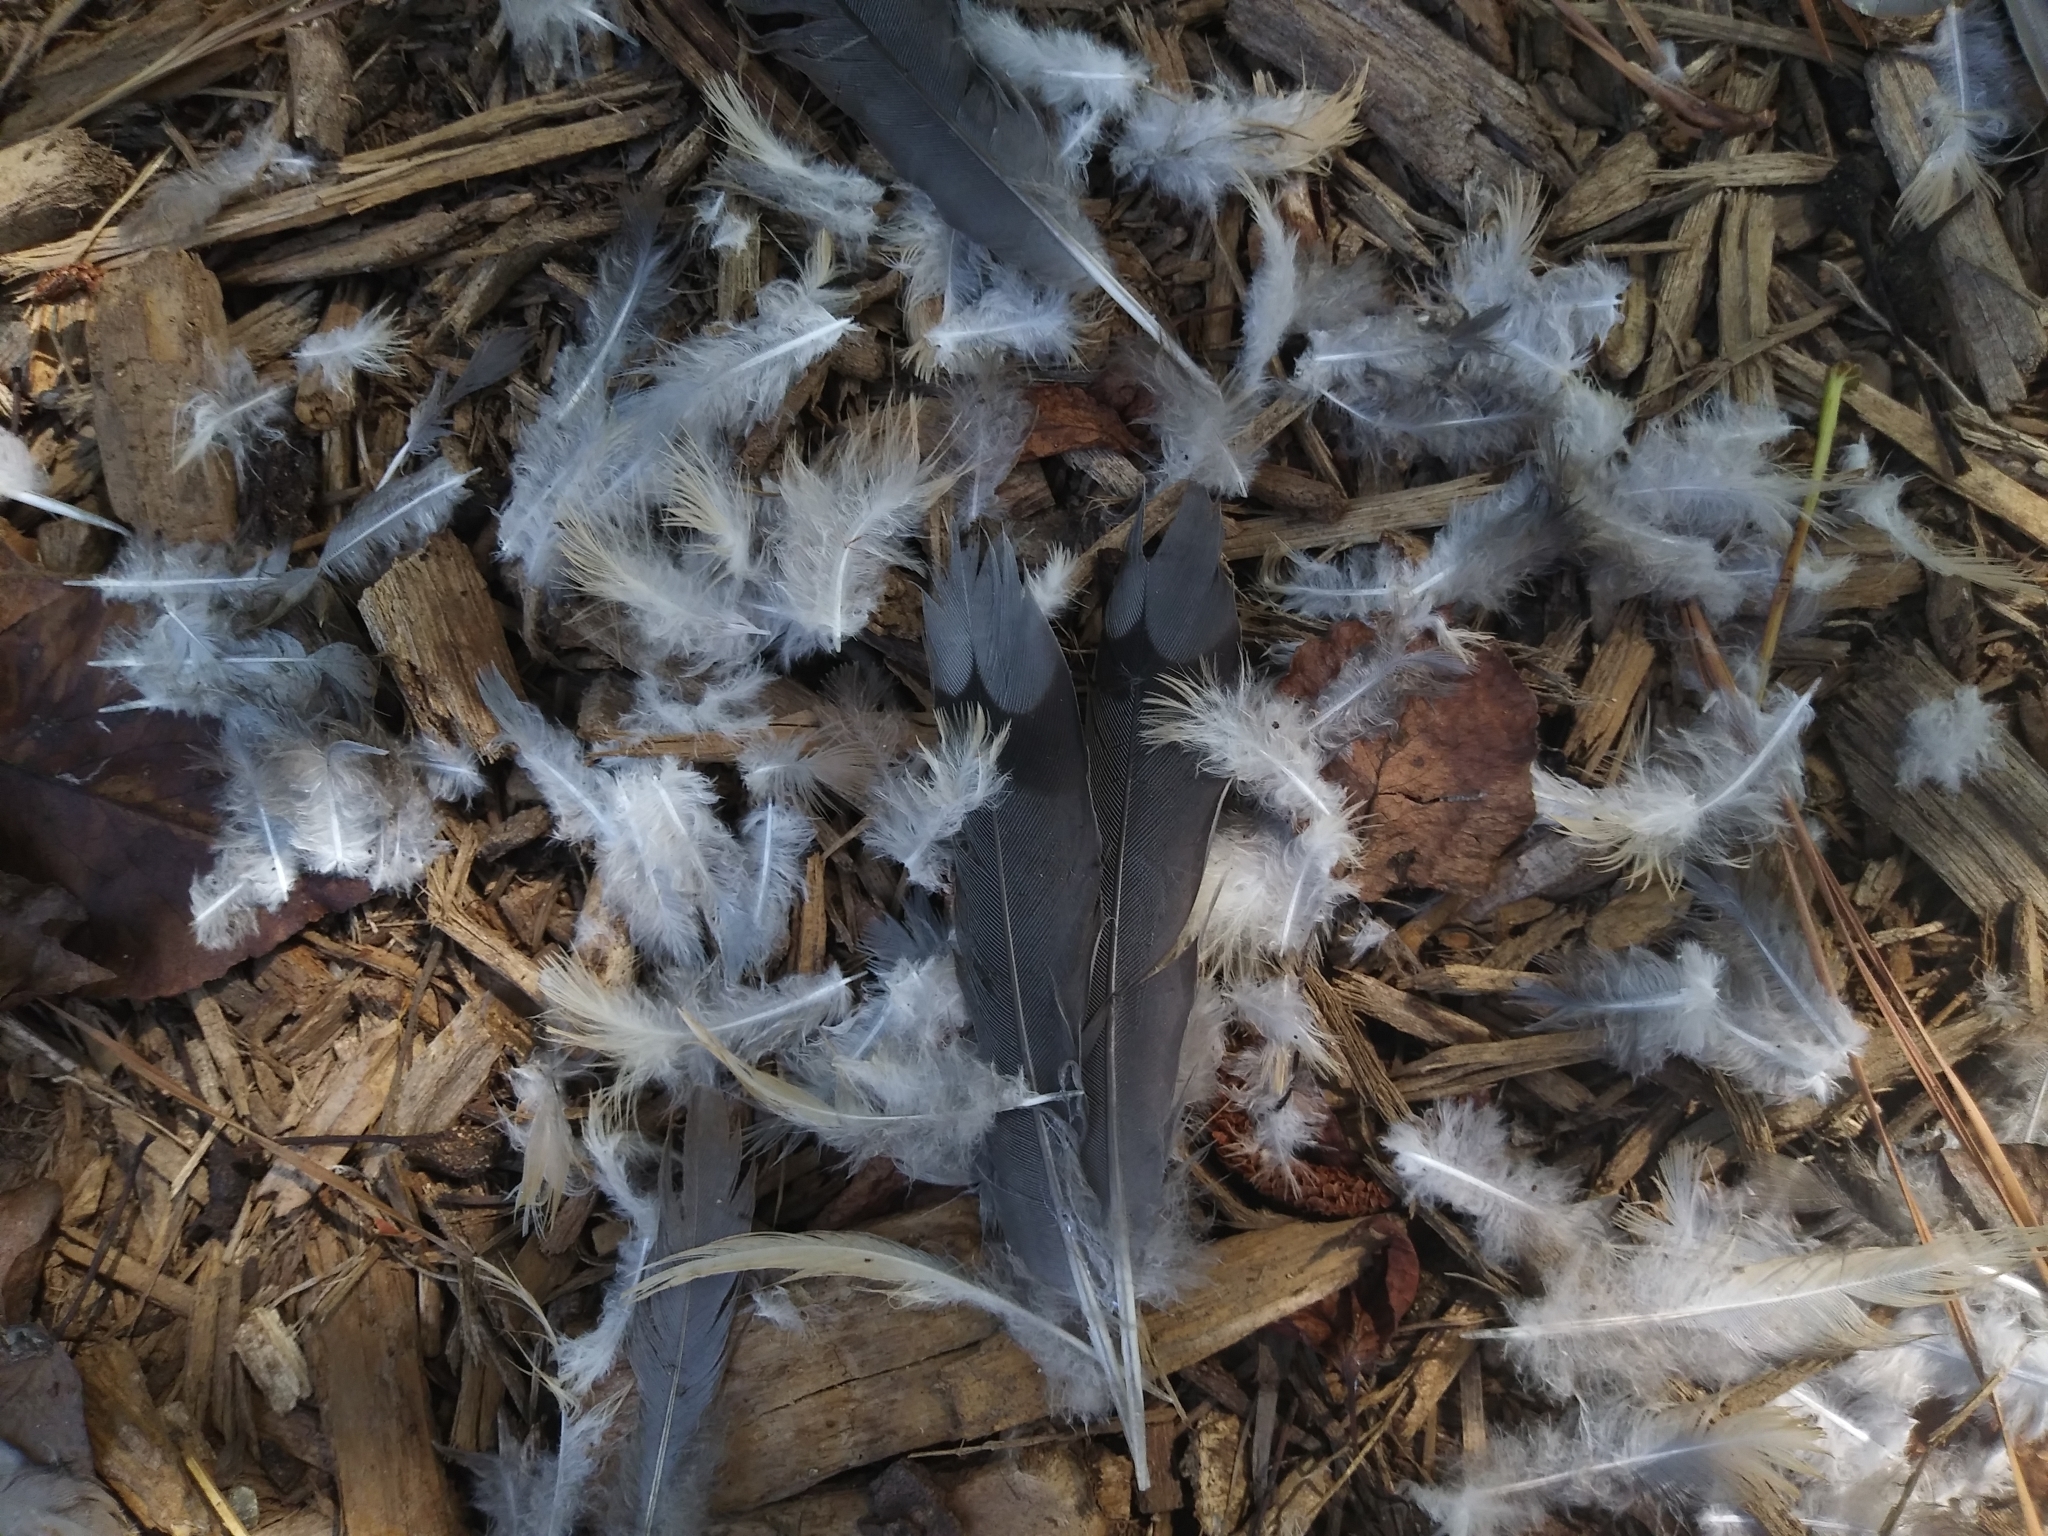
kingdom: Animalia
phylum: Chordata
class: Aves
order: Columbiformes
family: Columbidae
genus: Zenaida
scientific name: Zenaida macroura
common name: Mourning dove
